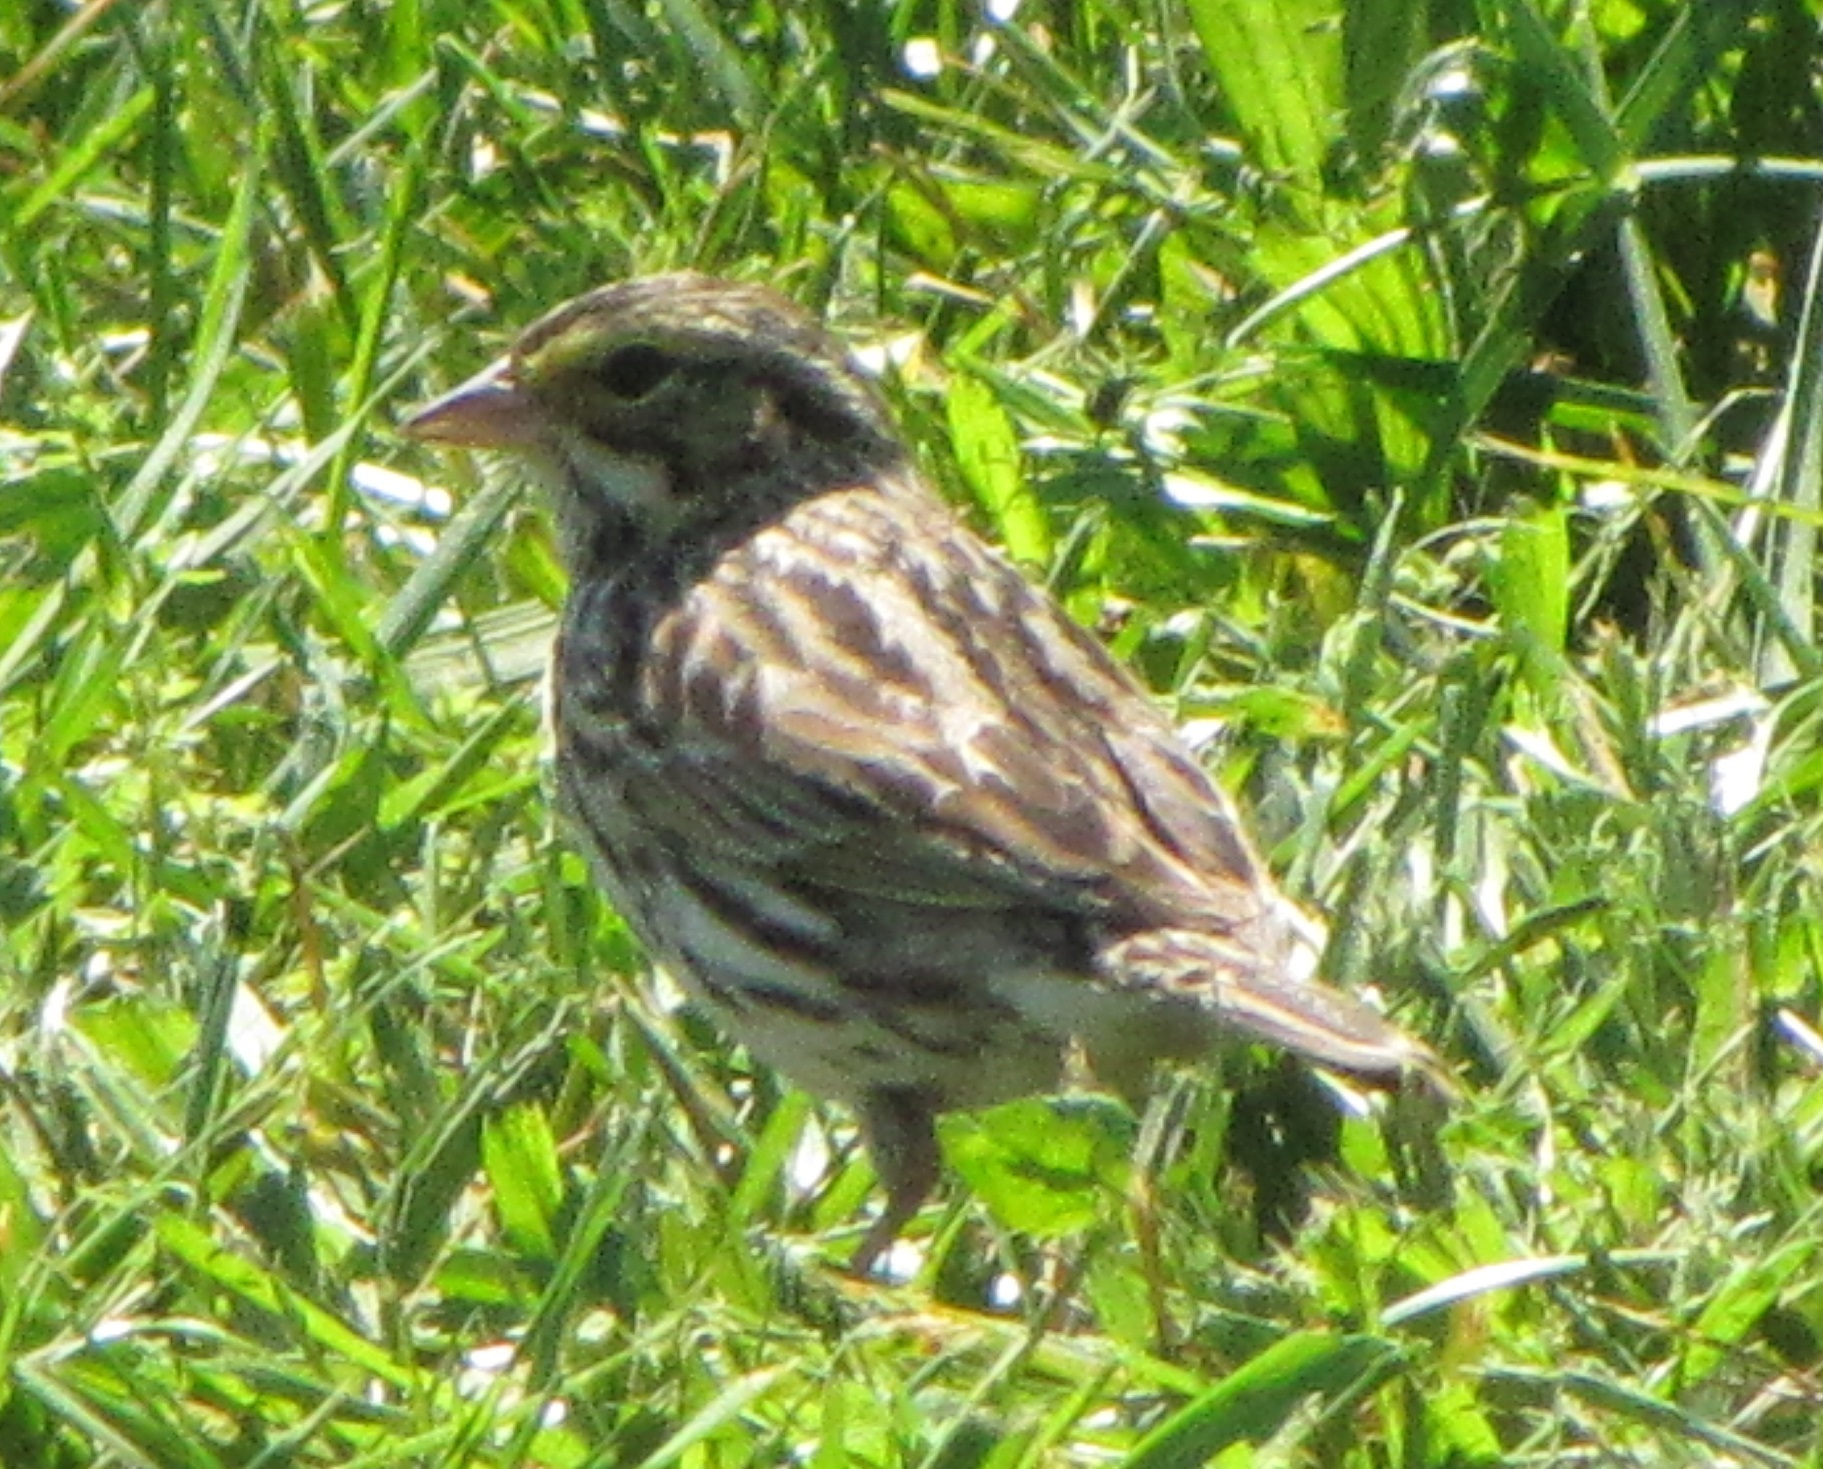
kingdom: Animalia
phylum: Chordata
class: Aves
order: Passeriformes
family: Passerellidae
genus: Passerculus
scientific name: Passerculus sandwichensis
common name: Savannah sparrow
